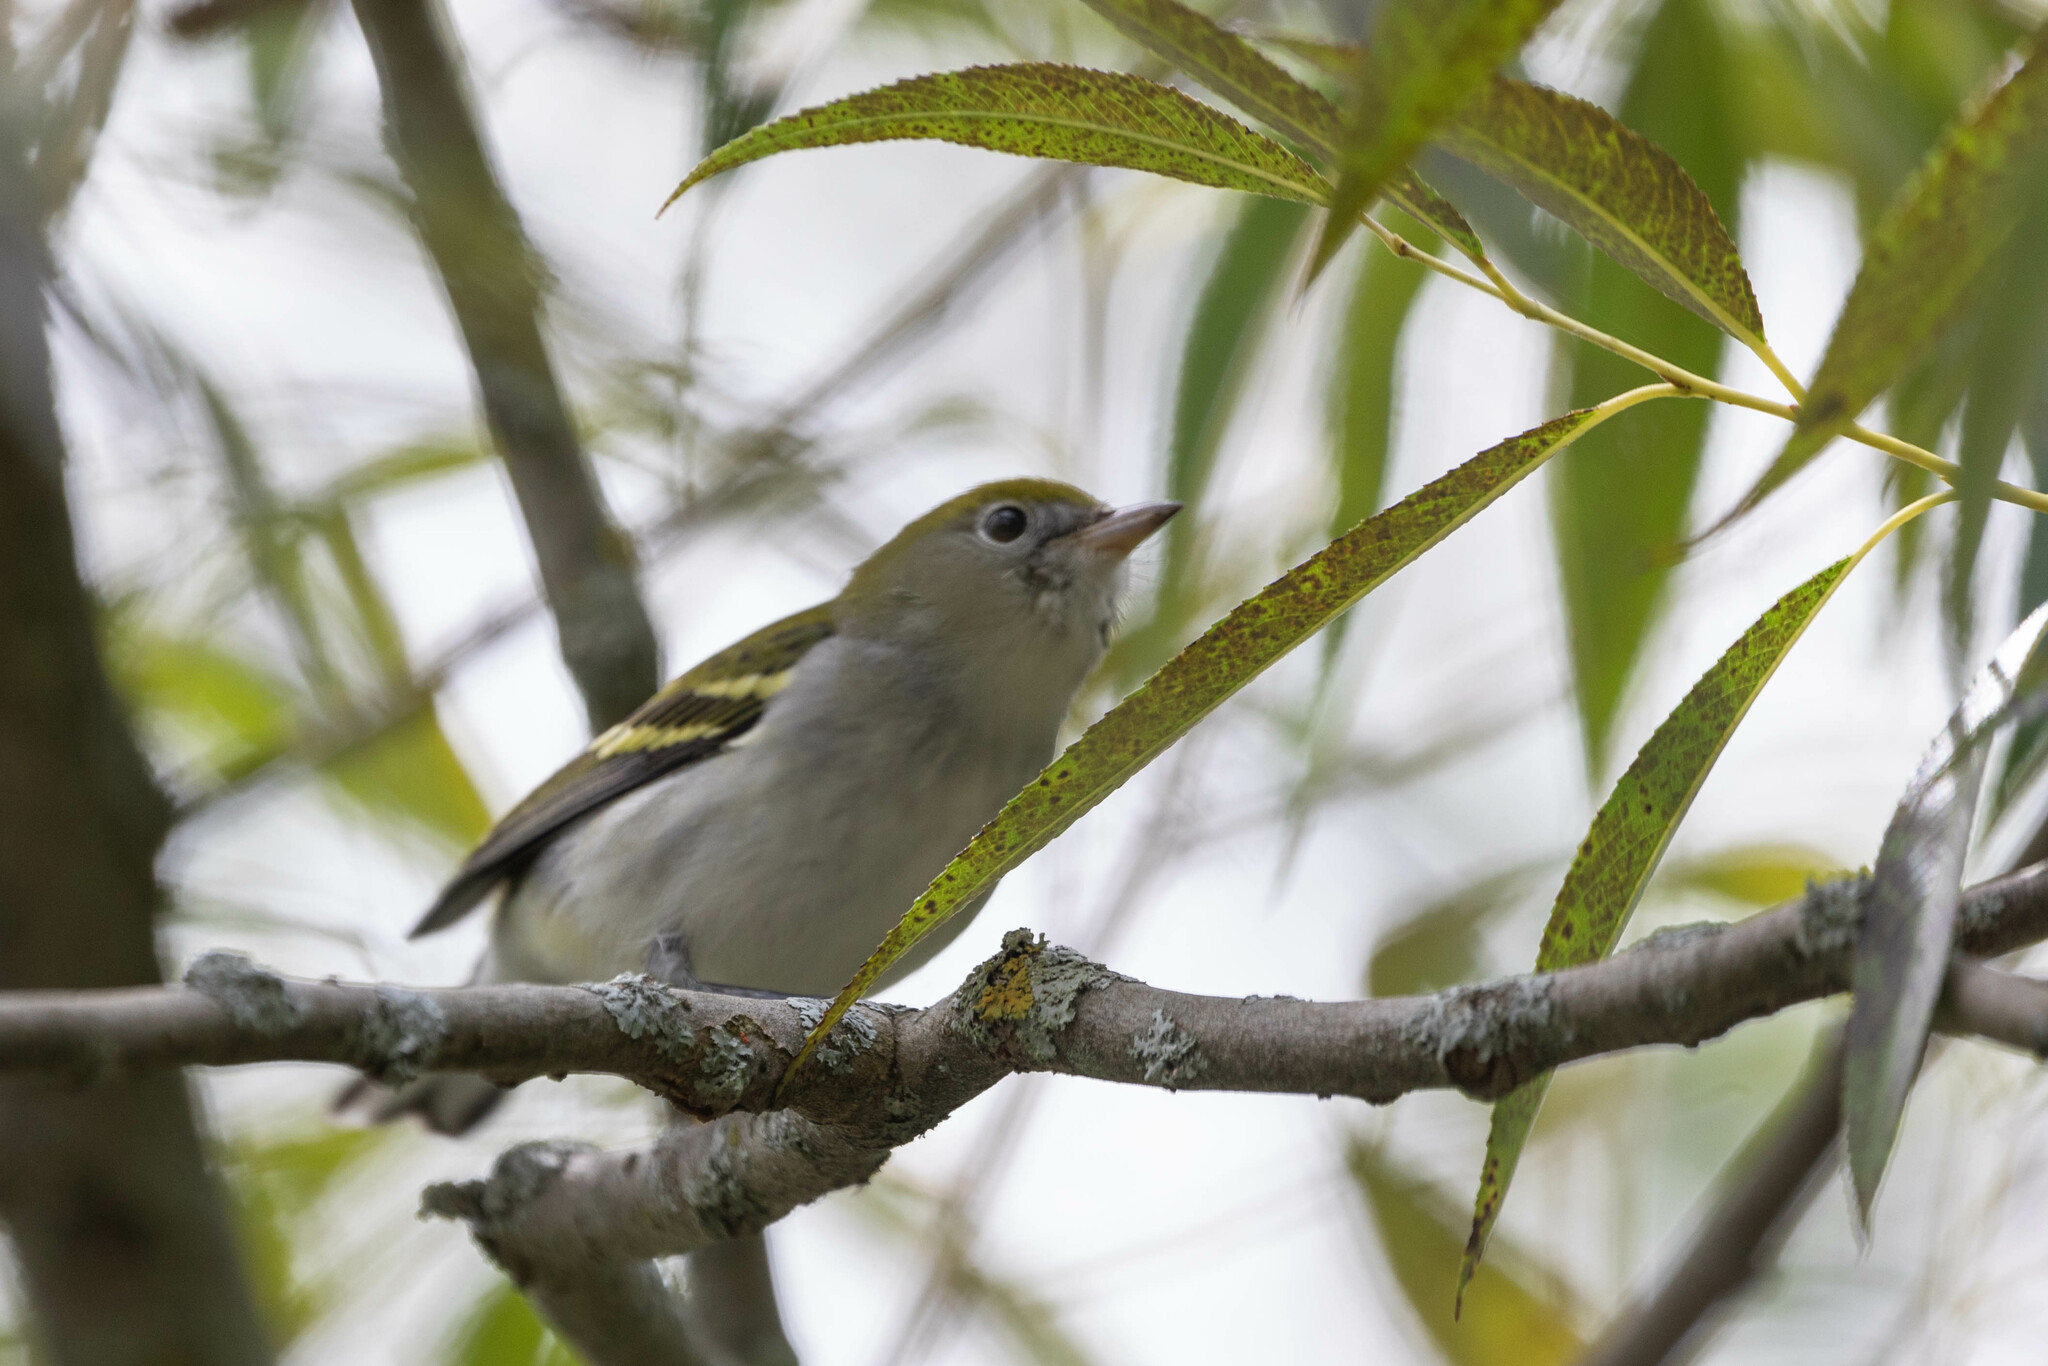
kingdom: Animalia
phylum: Chordata
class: Aves
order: Passeriformes
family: Parulidae
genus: Setophaga
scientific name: Setophaga pensylvanica
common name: Chestnut-sided warbler
